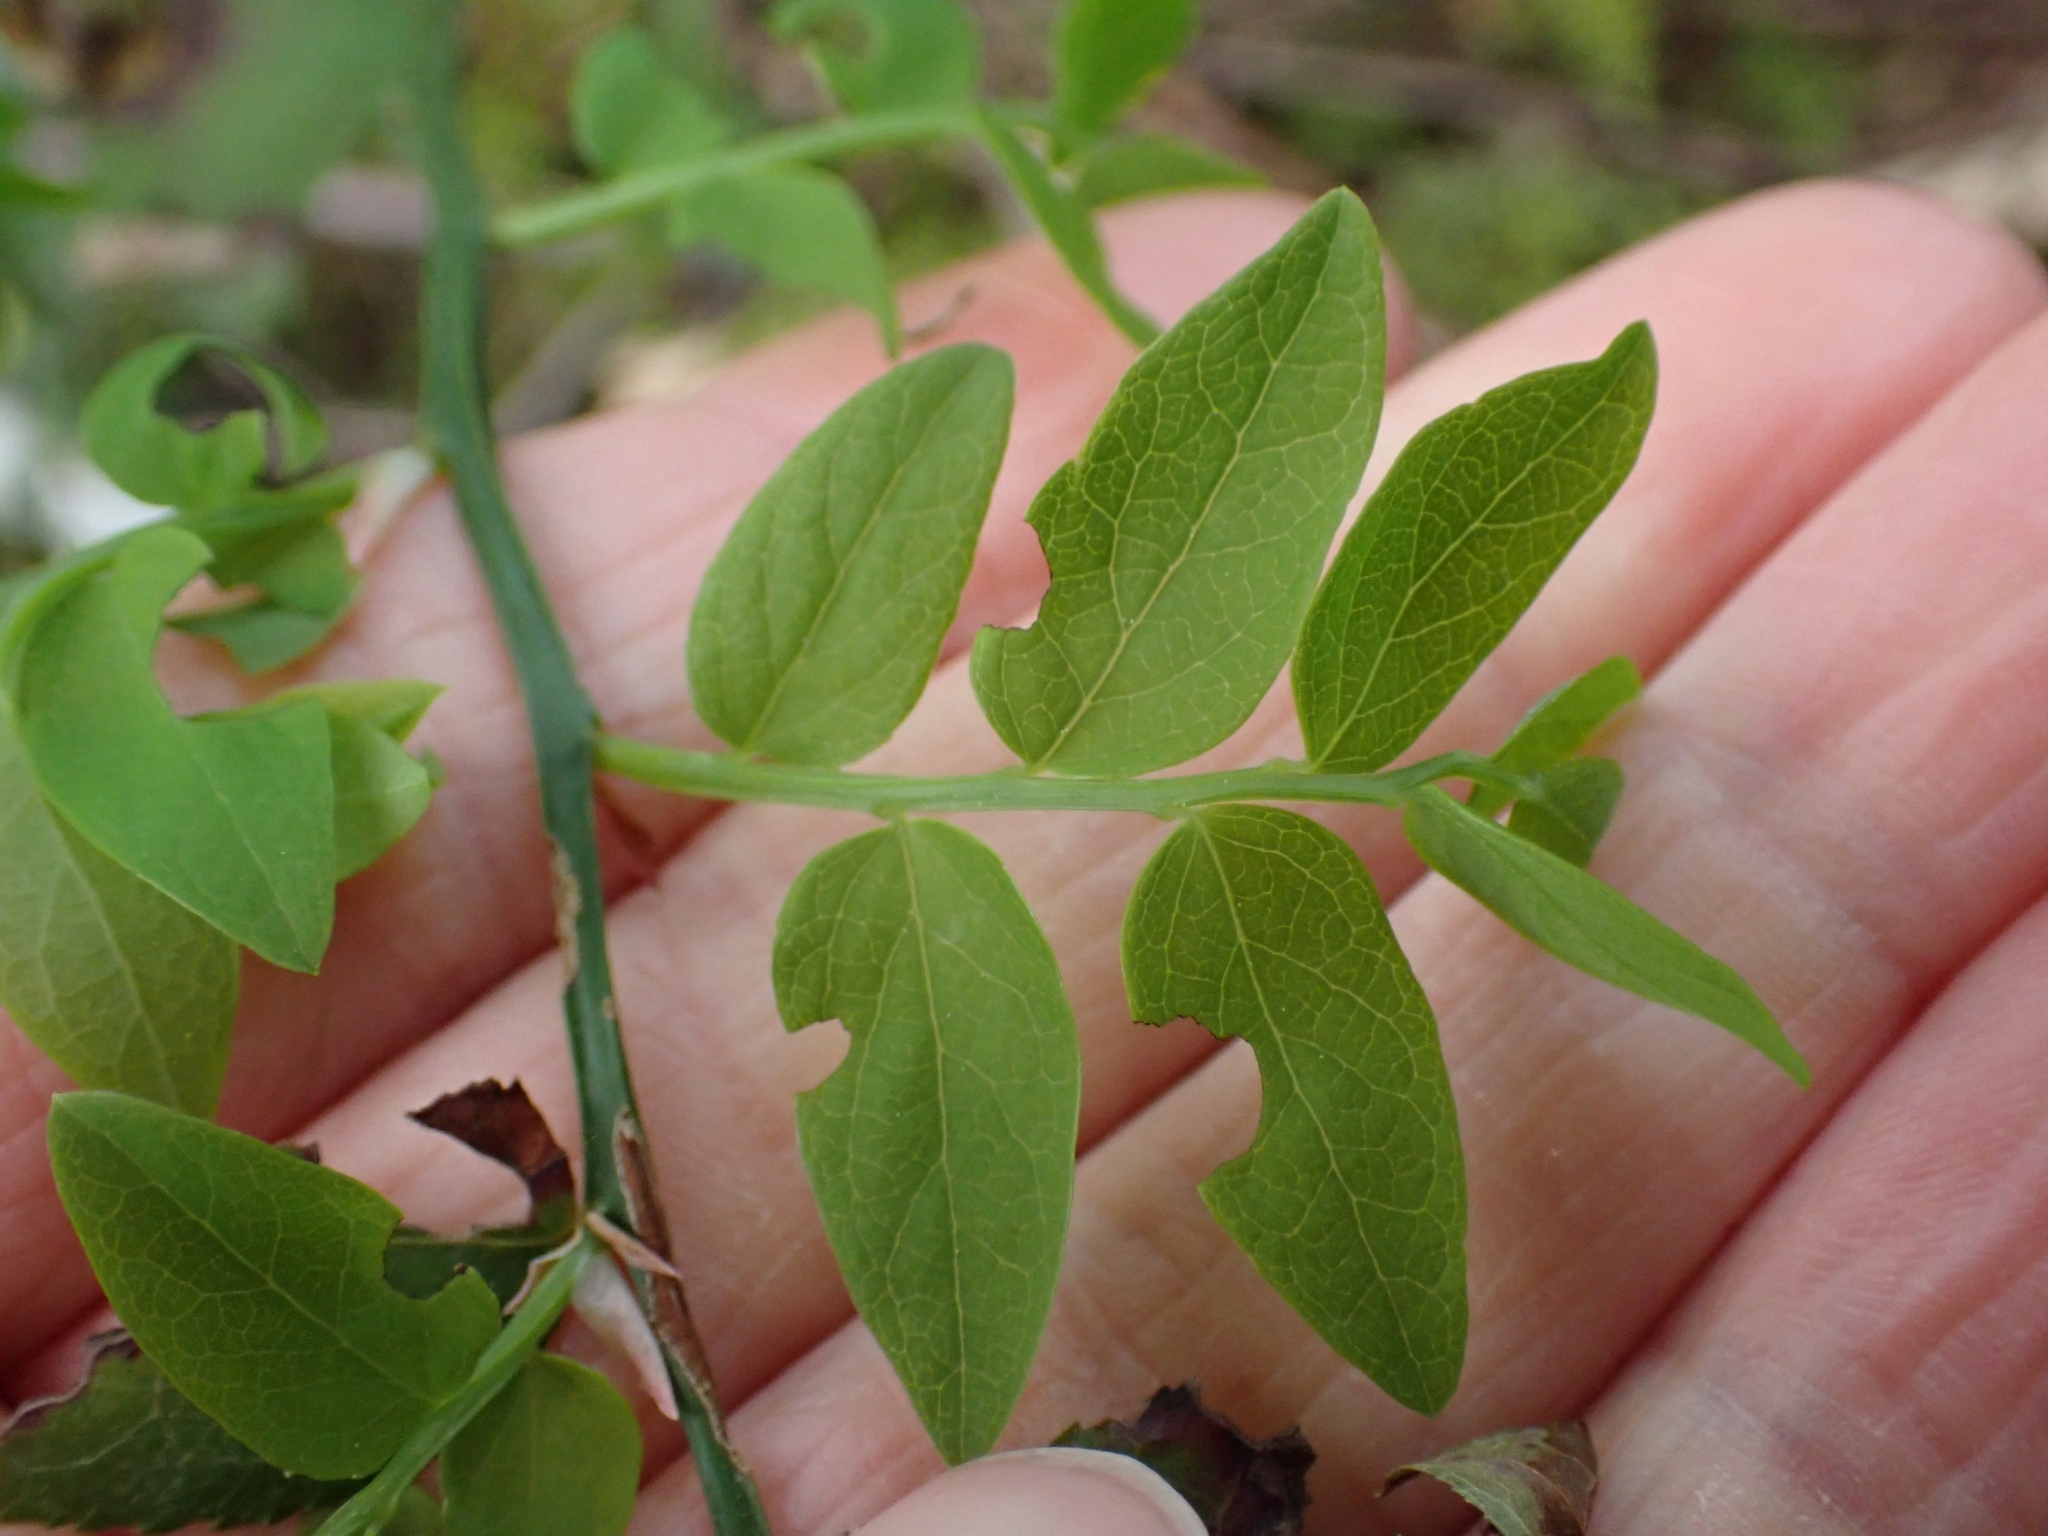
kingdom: Plantae
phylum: Tracheophyta
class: Magnoliopsida
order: Ericales
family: Ericaceae
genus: Vaccinium
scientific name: Vaccinium parvifolium
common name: Red-huckleberry
